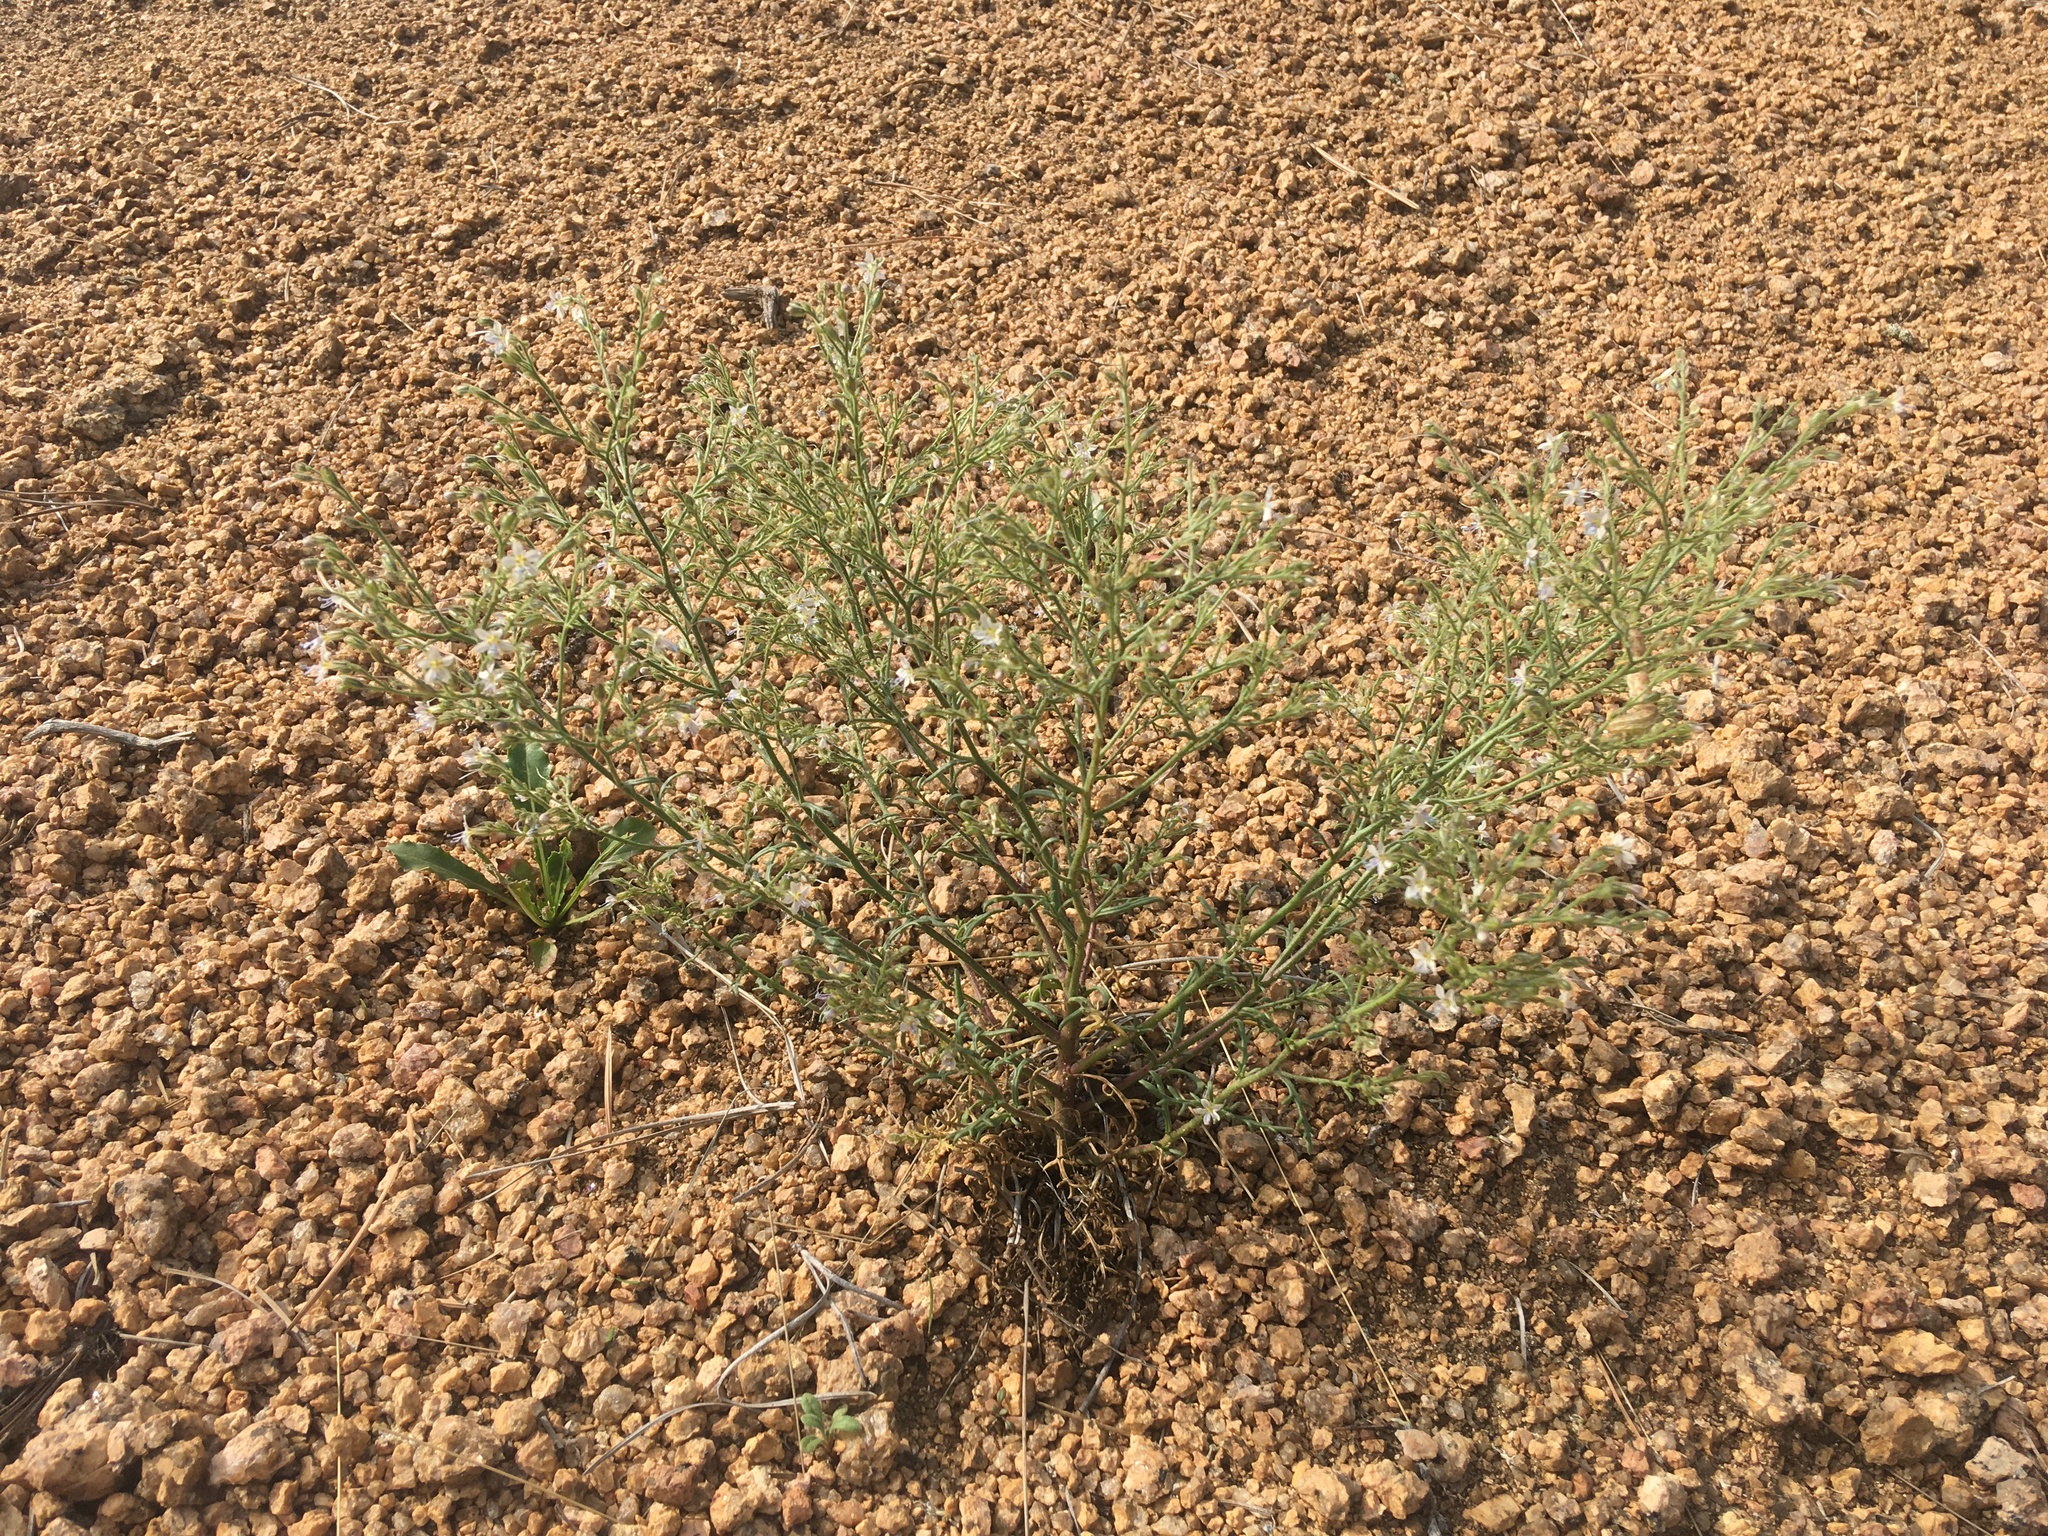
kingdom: Plantae
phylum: Tracheophyta
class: Magnoliopsida
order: Ericales
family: Polemoniaceae
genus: Aliciella
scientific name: Aliciella pinnatifida
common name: Sticky gilia
